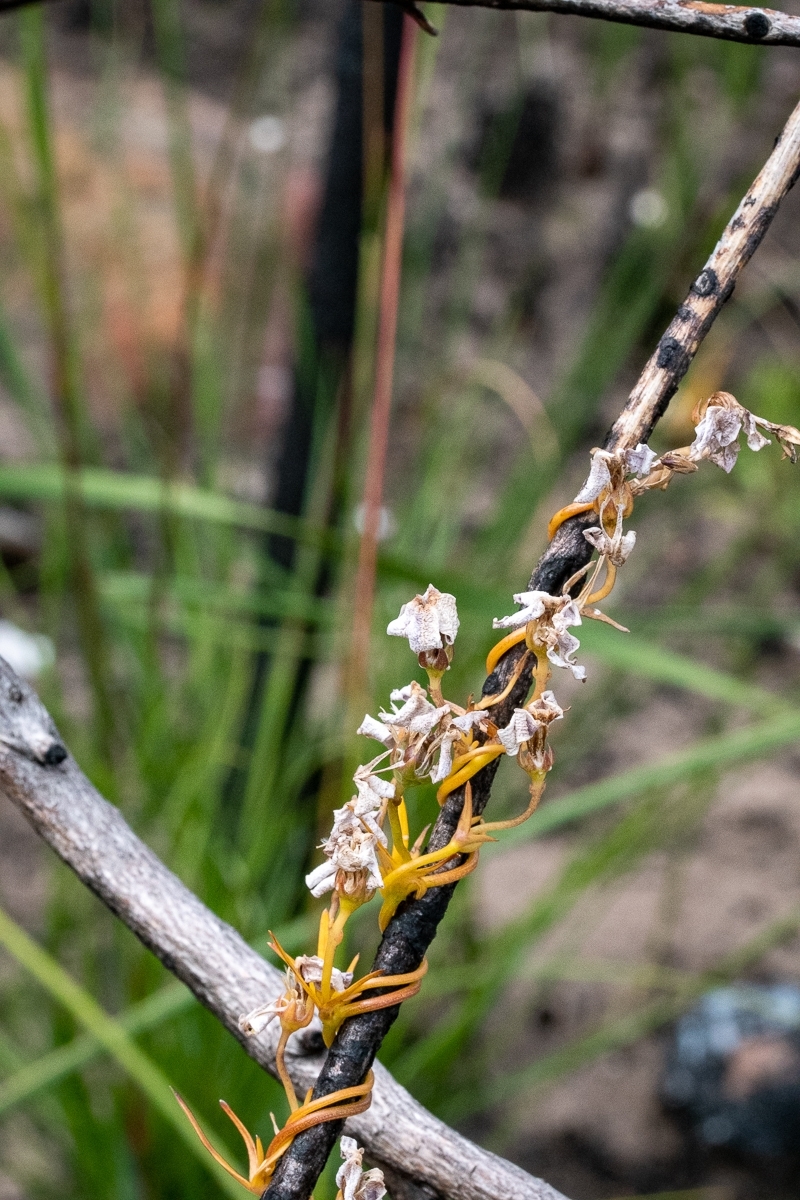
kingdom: Plantae
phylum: Tracheophyta
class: Magnoliopsida
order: Asterales
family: Campanulaceae
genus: Cyphia
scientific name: Cyphia volubilis
